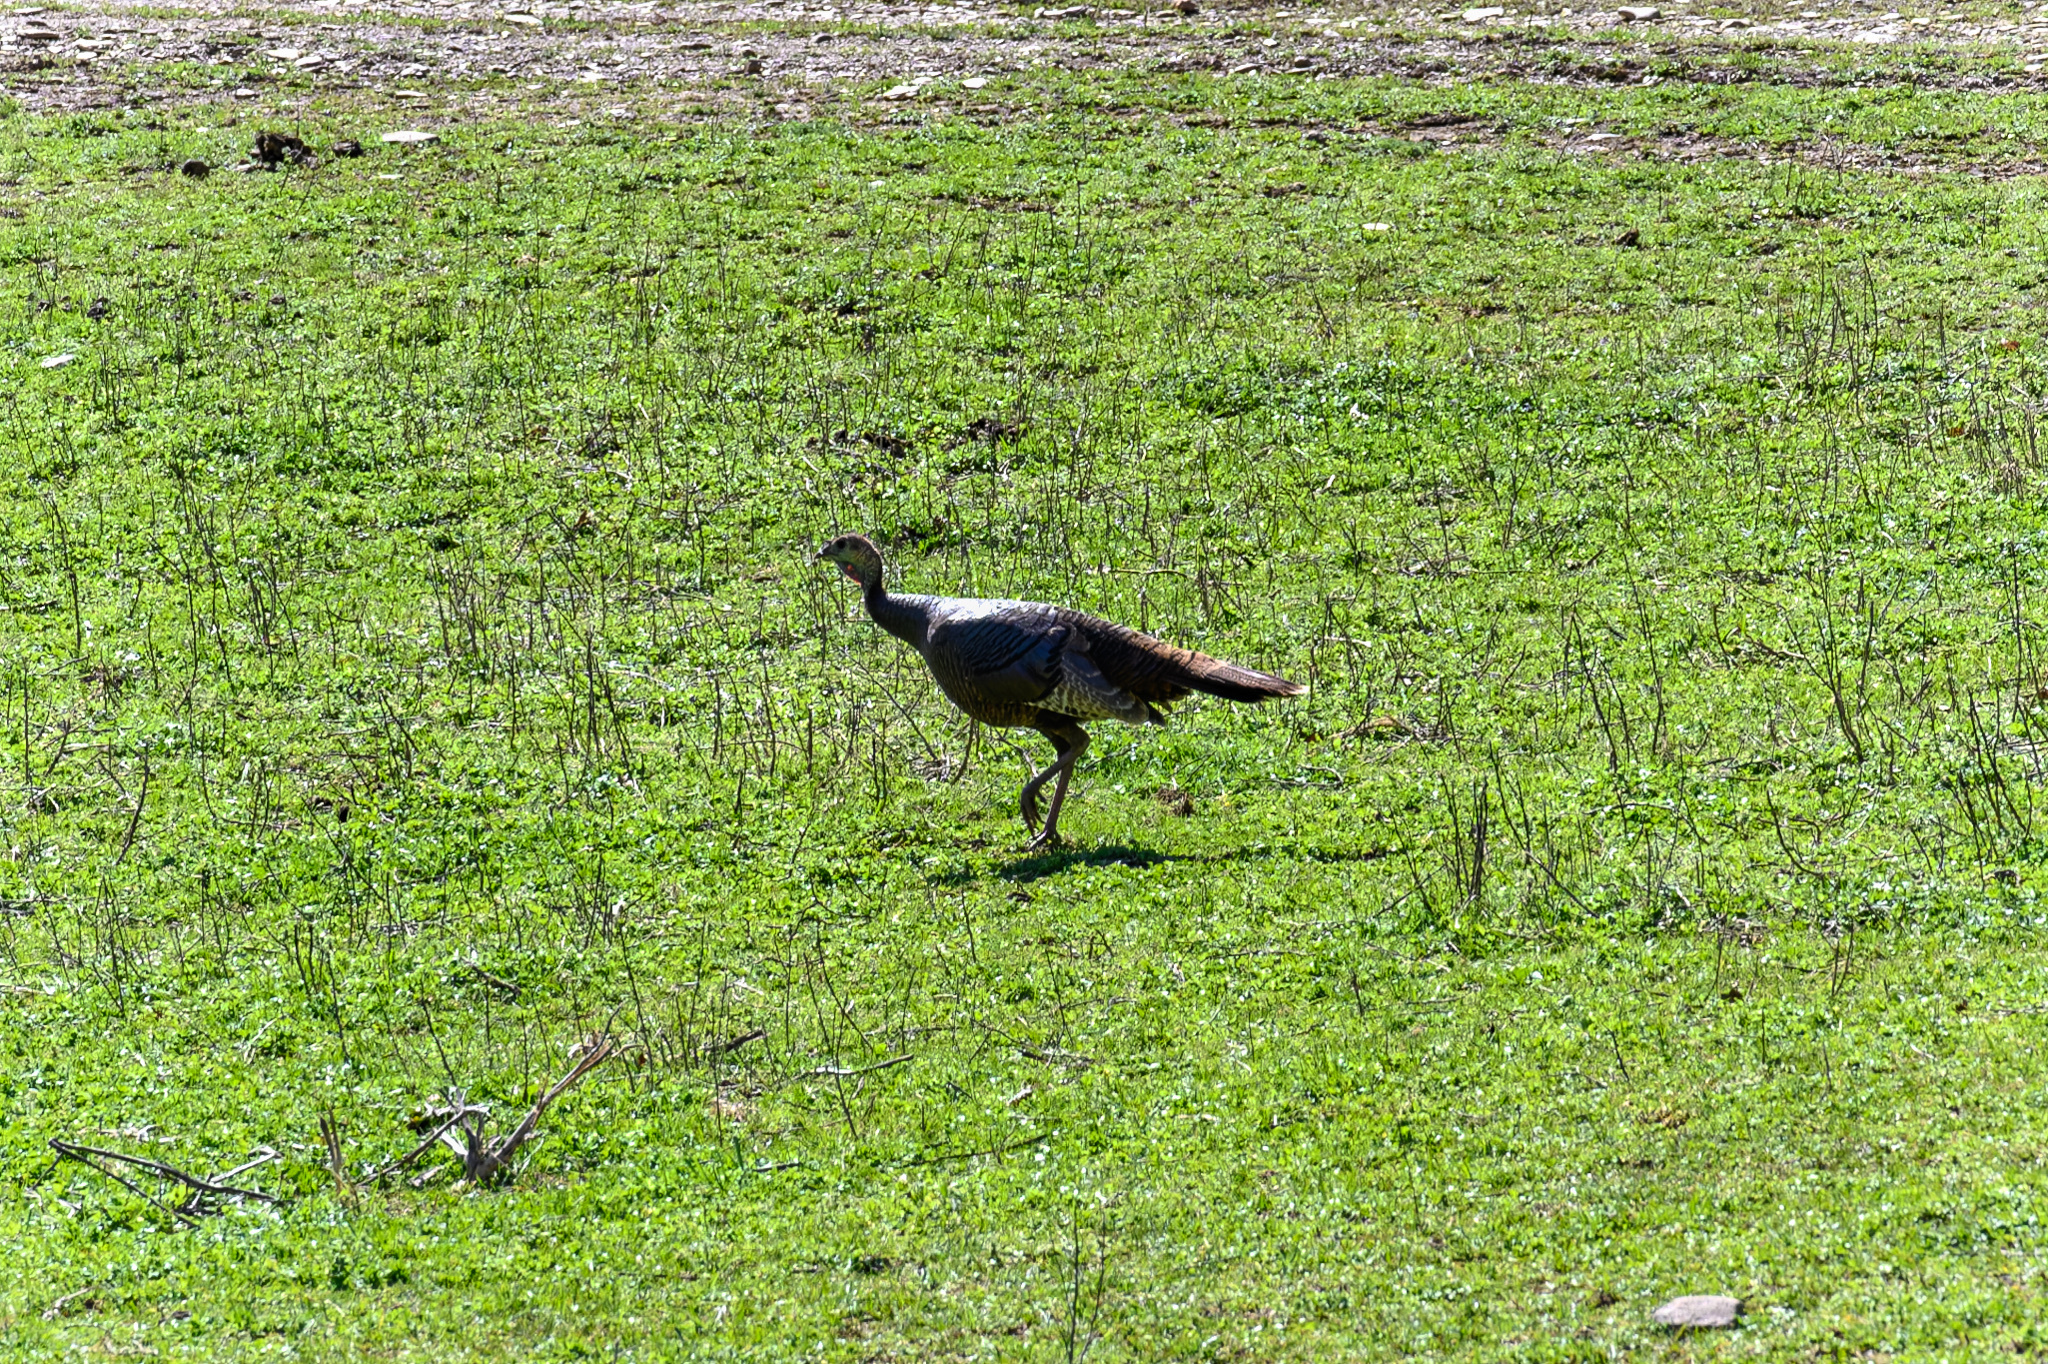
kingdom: Animalia
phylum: Chordata
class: Aves
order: Galliformes
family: Phasianidae
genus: Meleagris
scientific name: Meleagris gallopavo
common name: Wild turkey
